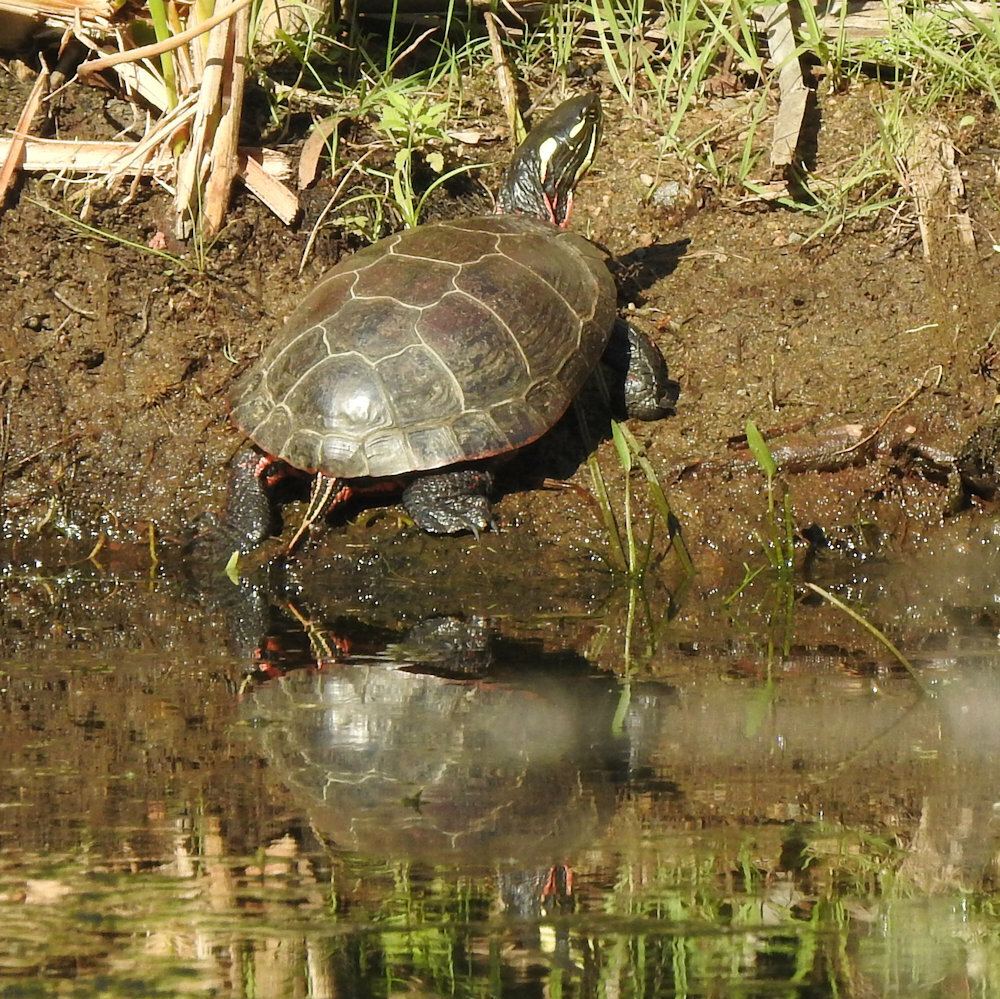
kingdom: Animalia
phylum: Chordata
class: Testudines
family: Emydidae
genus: Chrysemys
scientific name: Chrysemys picta
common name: Painted turtle
